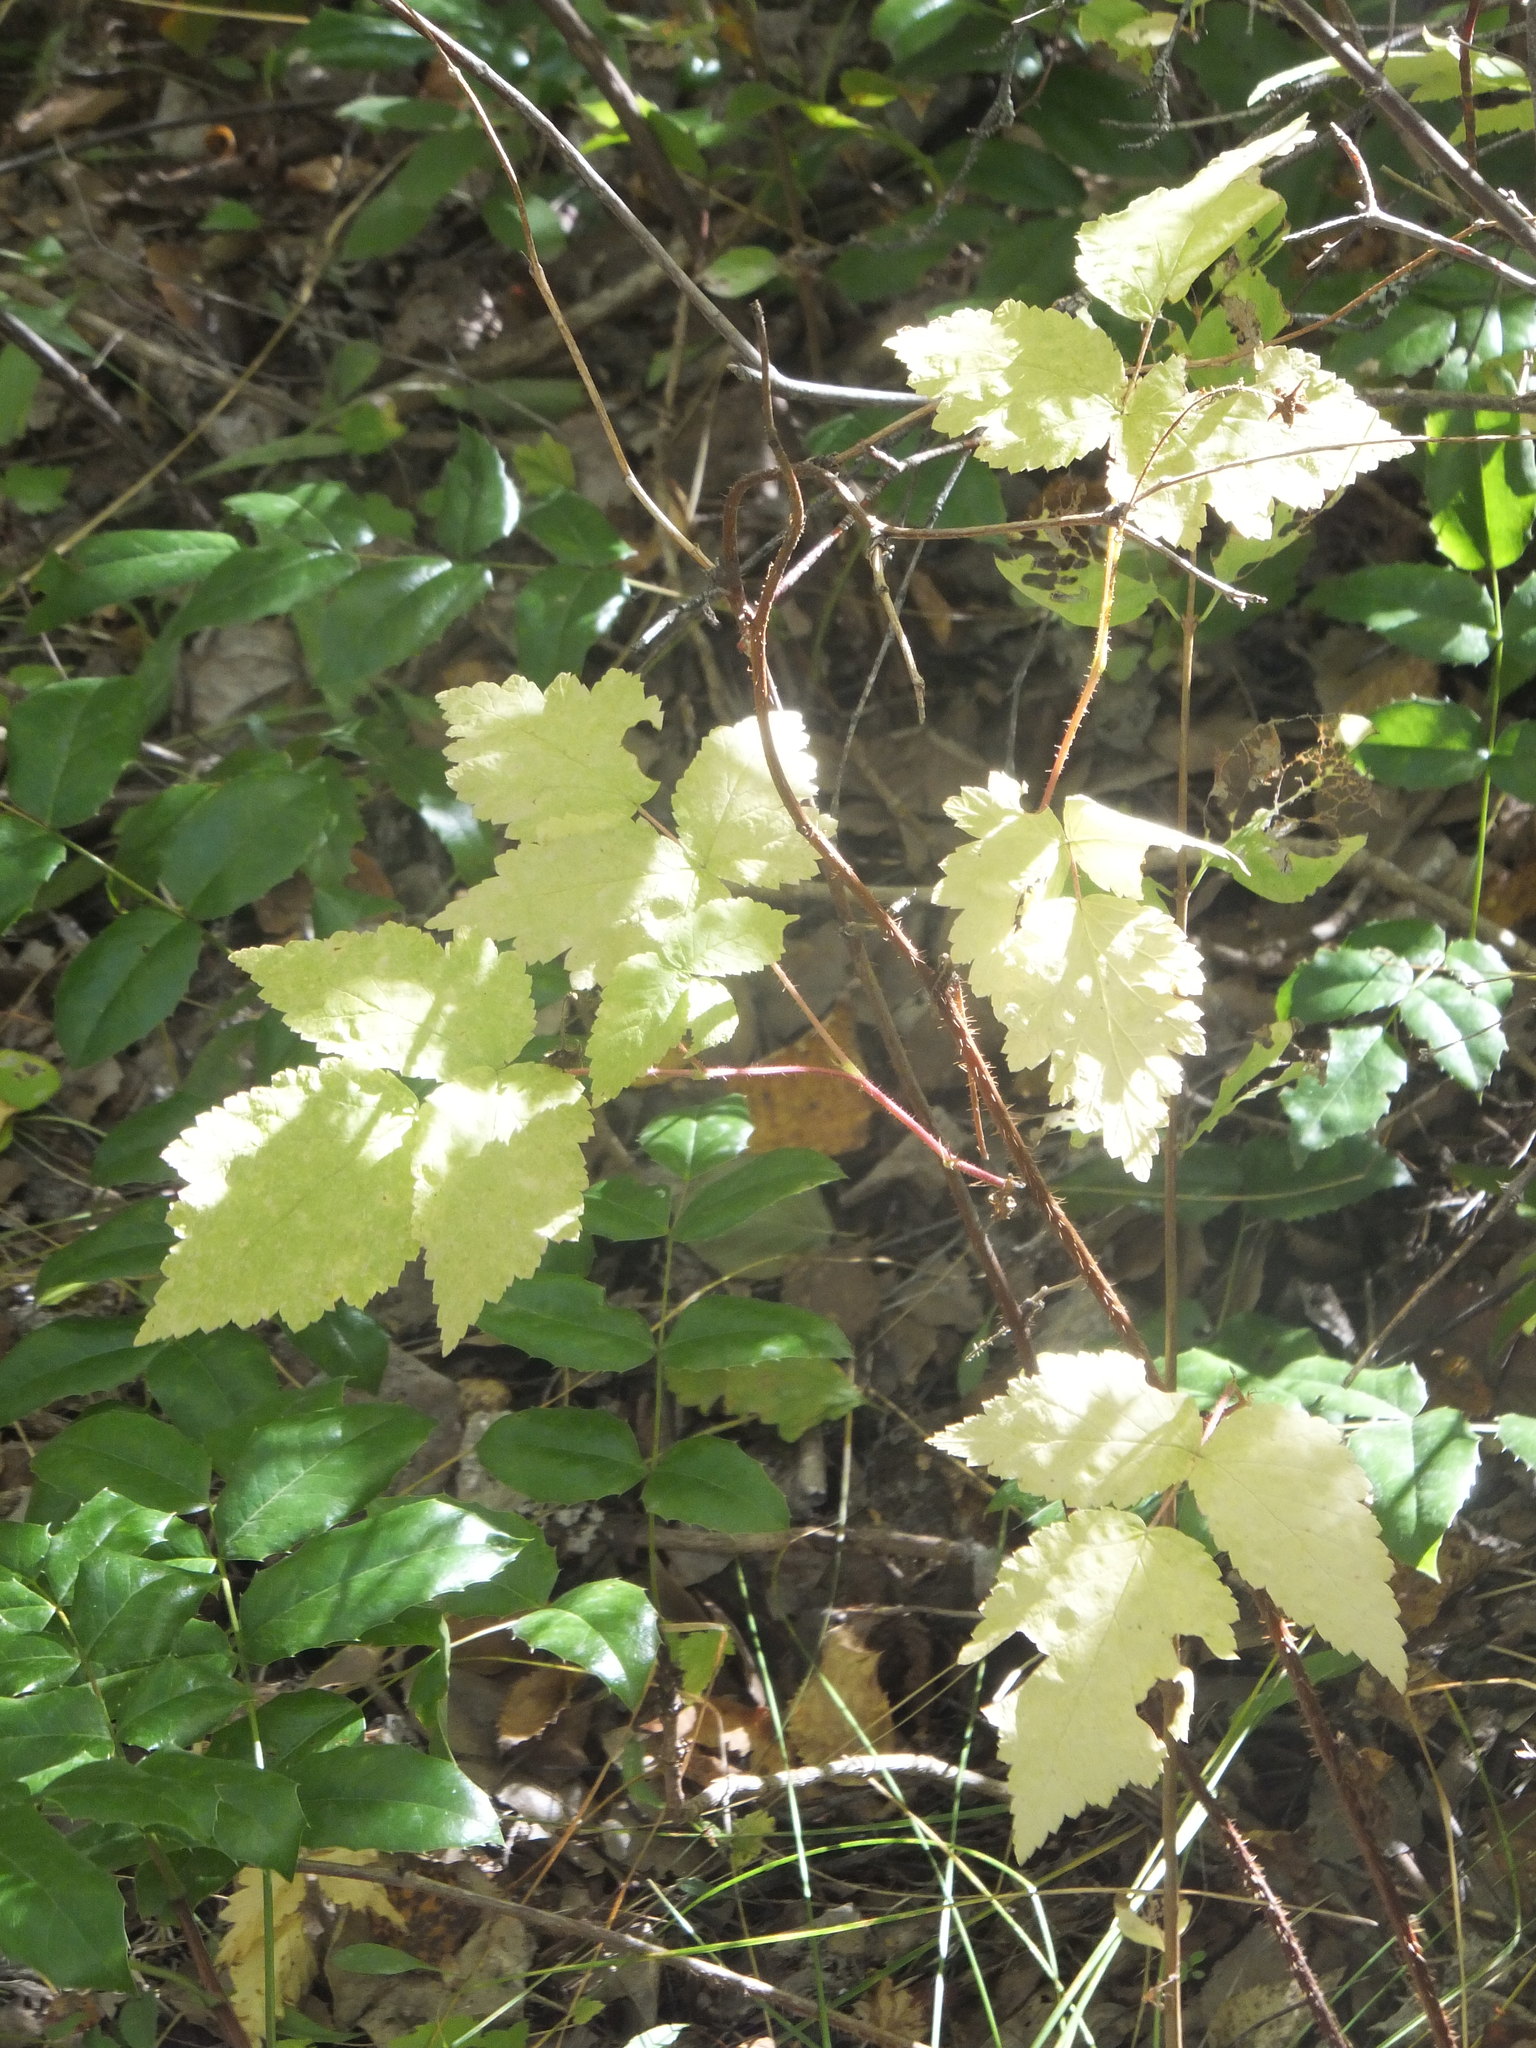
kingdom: Plantae
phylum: Tracheophyta
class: Magnoliopsida
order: Rosales
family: Rosaceae
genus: Rubus
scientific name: Rubus idaeus
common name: Raspberry
